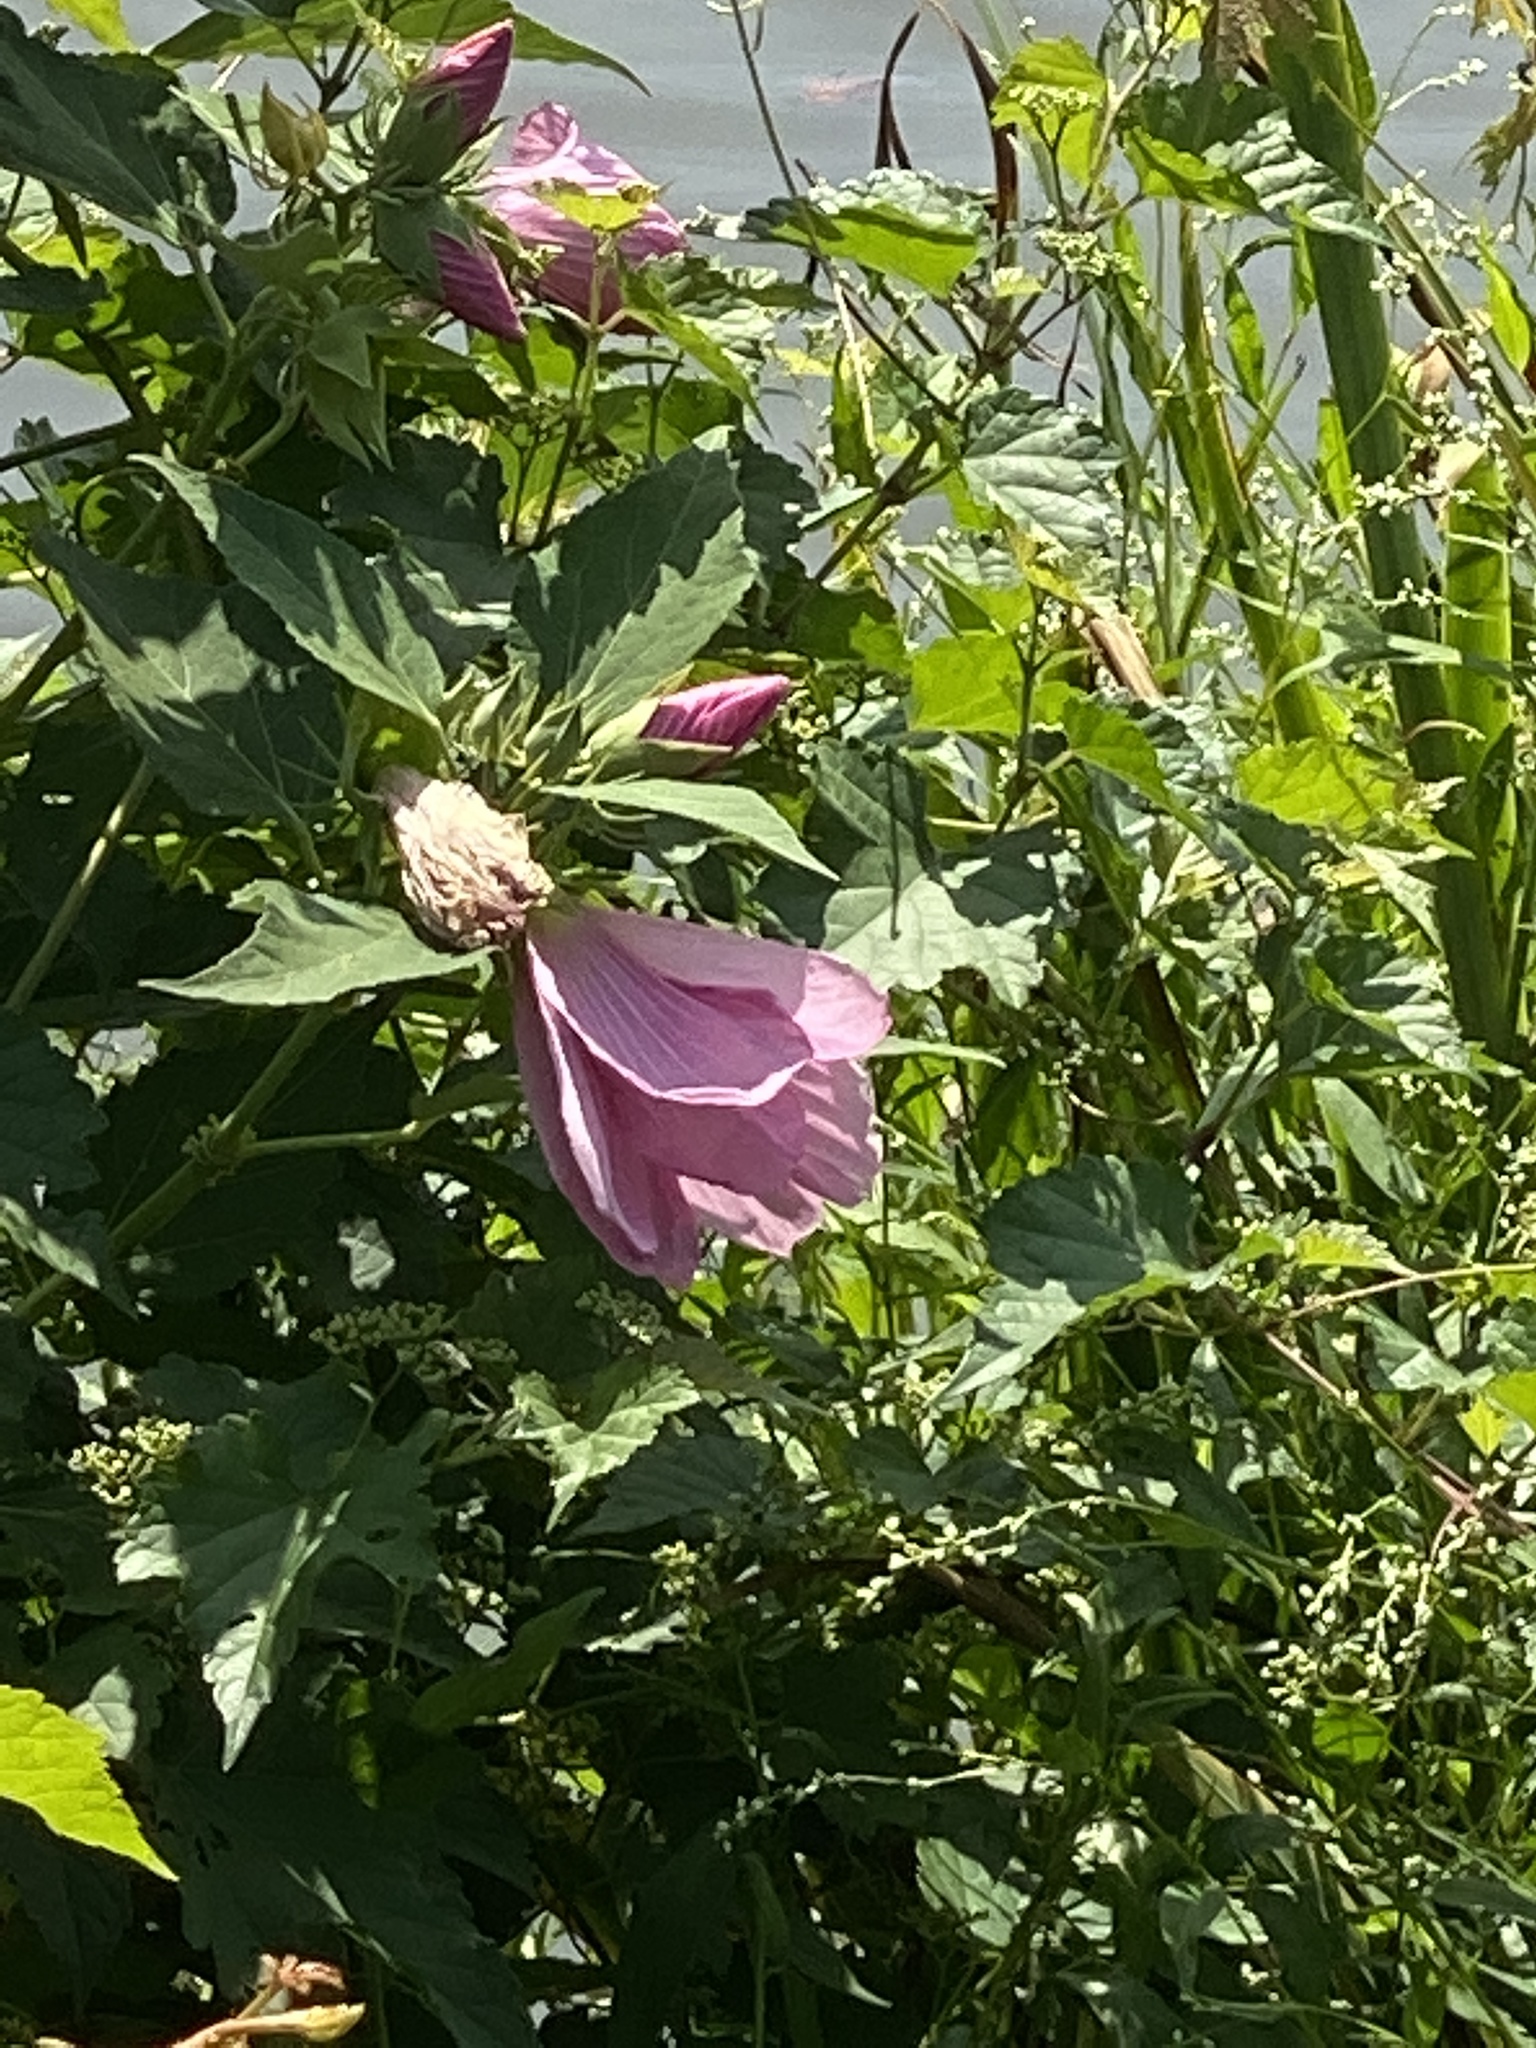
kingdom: Plantae
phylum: Tracheophyta
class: Magnoliopsida
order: Malvales
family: Malvaceae
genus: Hibiscus
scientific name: Hibiscus moscheutos
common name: Common rose-mallow
